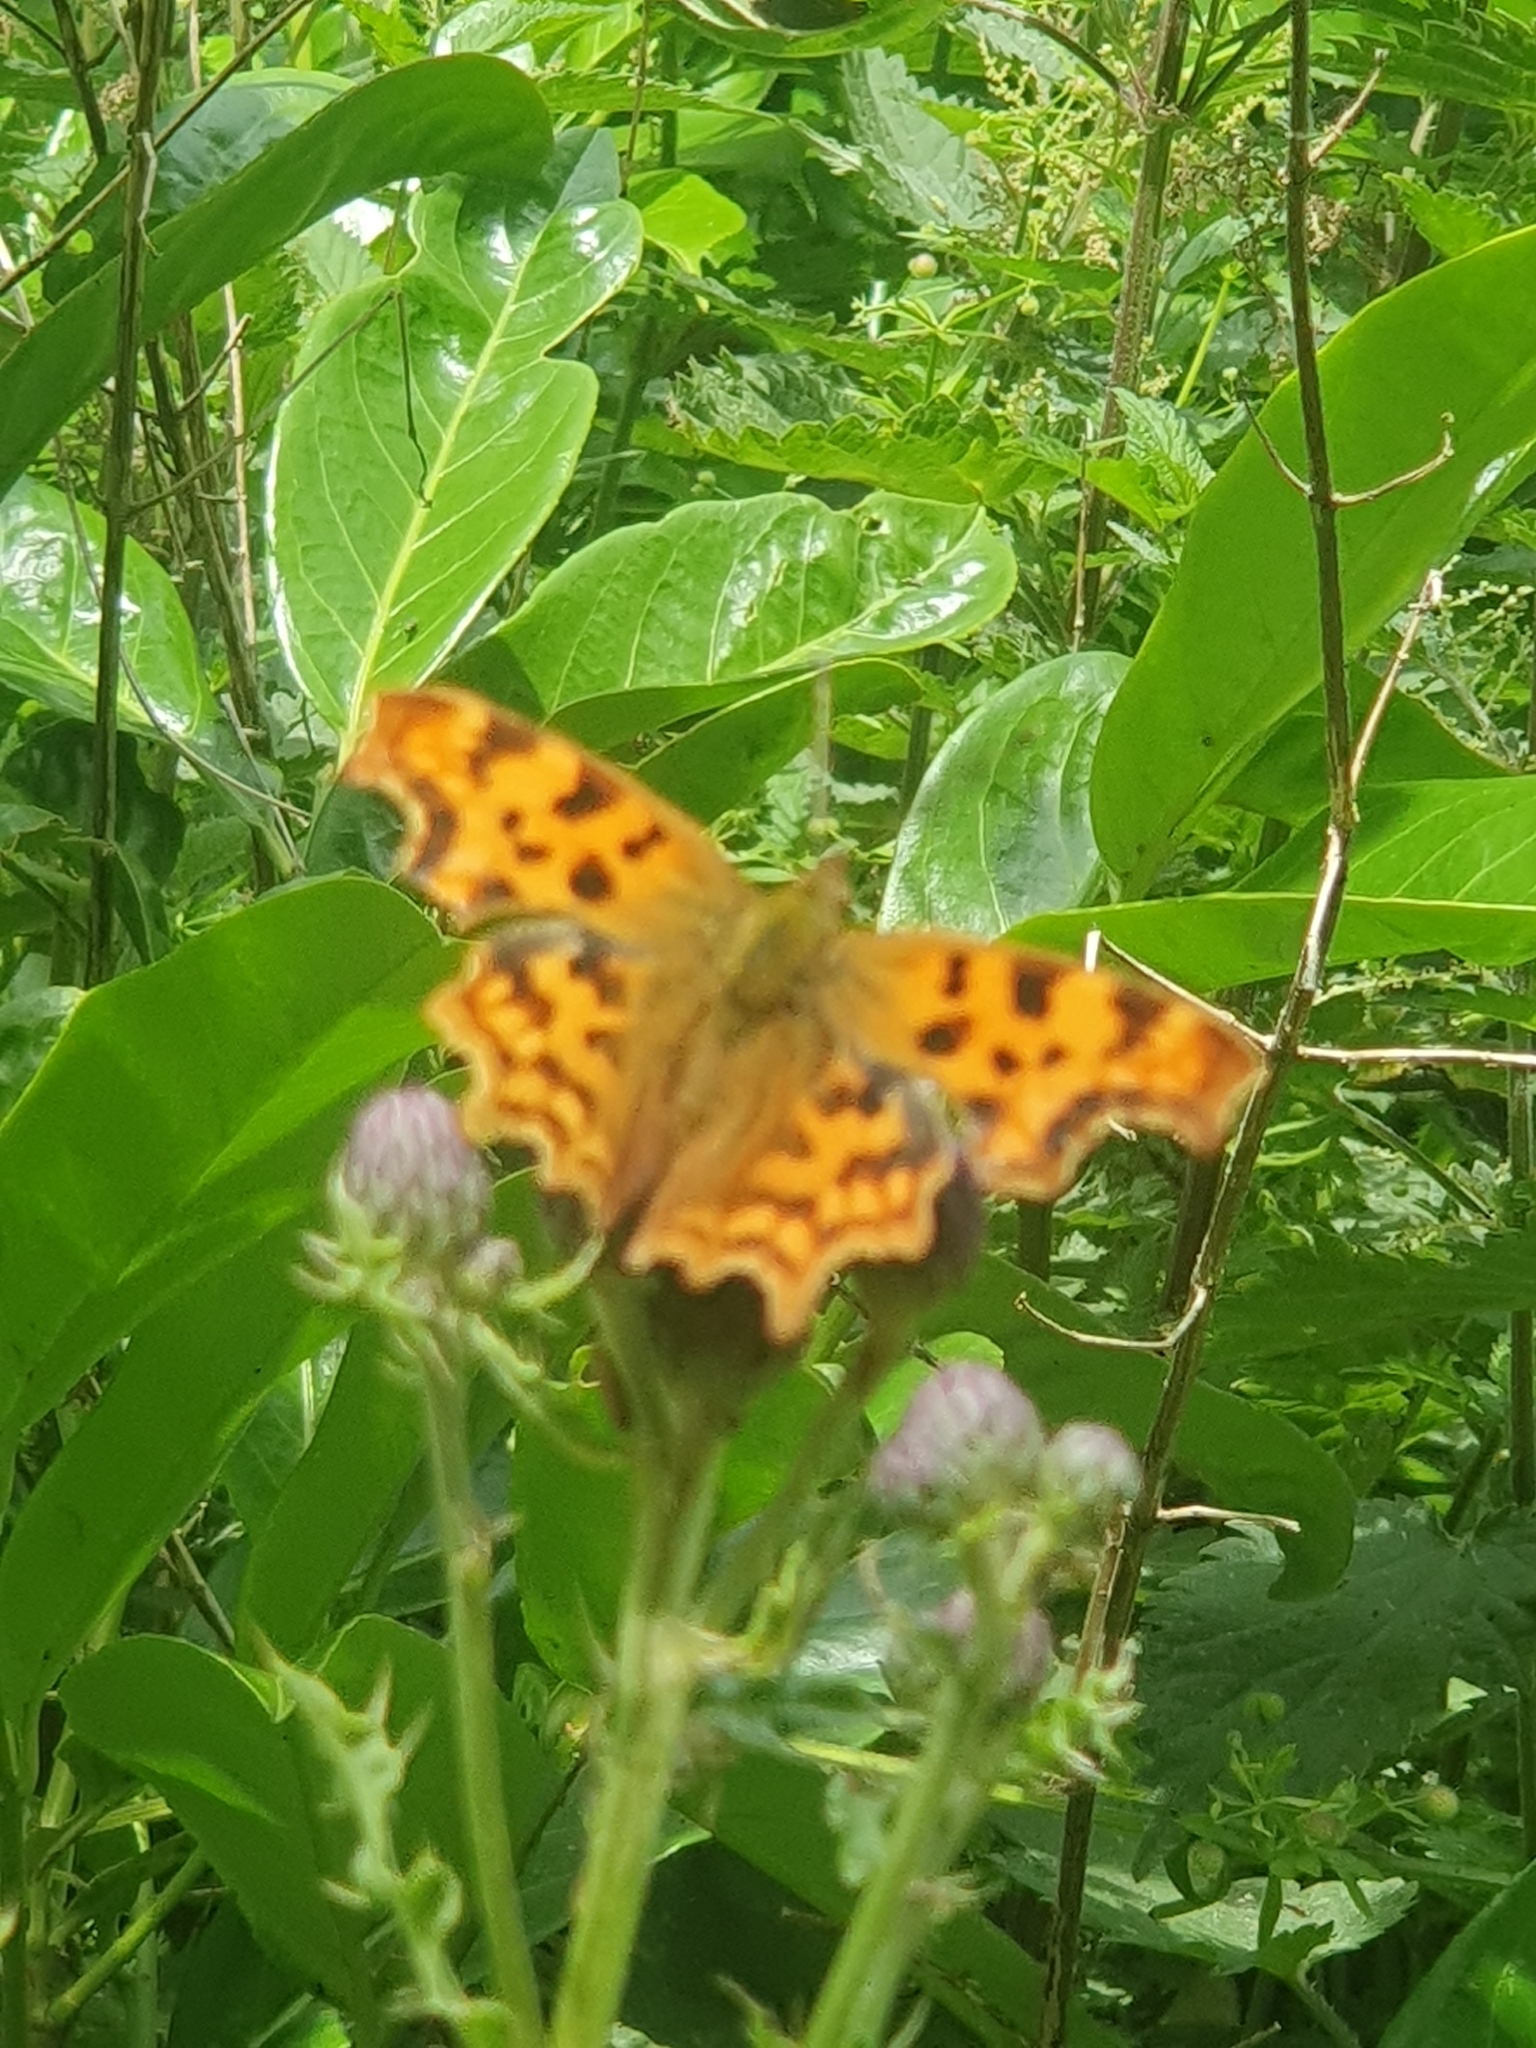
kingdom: Animalia
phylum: Arthropoda
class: Insecta
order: Lepidoptera
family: Nymphalidae
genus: Polygonia
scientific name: Polygonia c-album
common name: Comma
